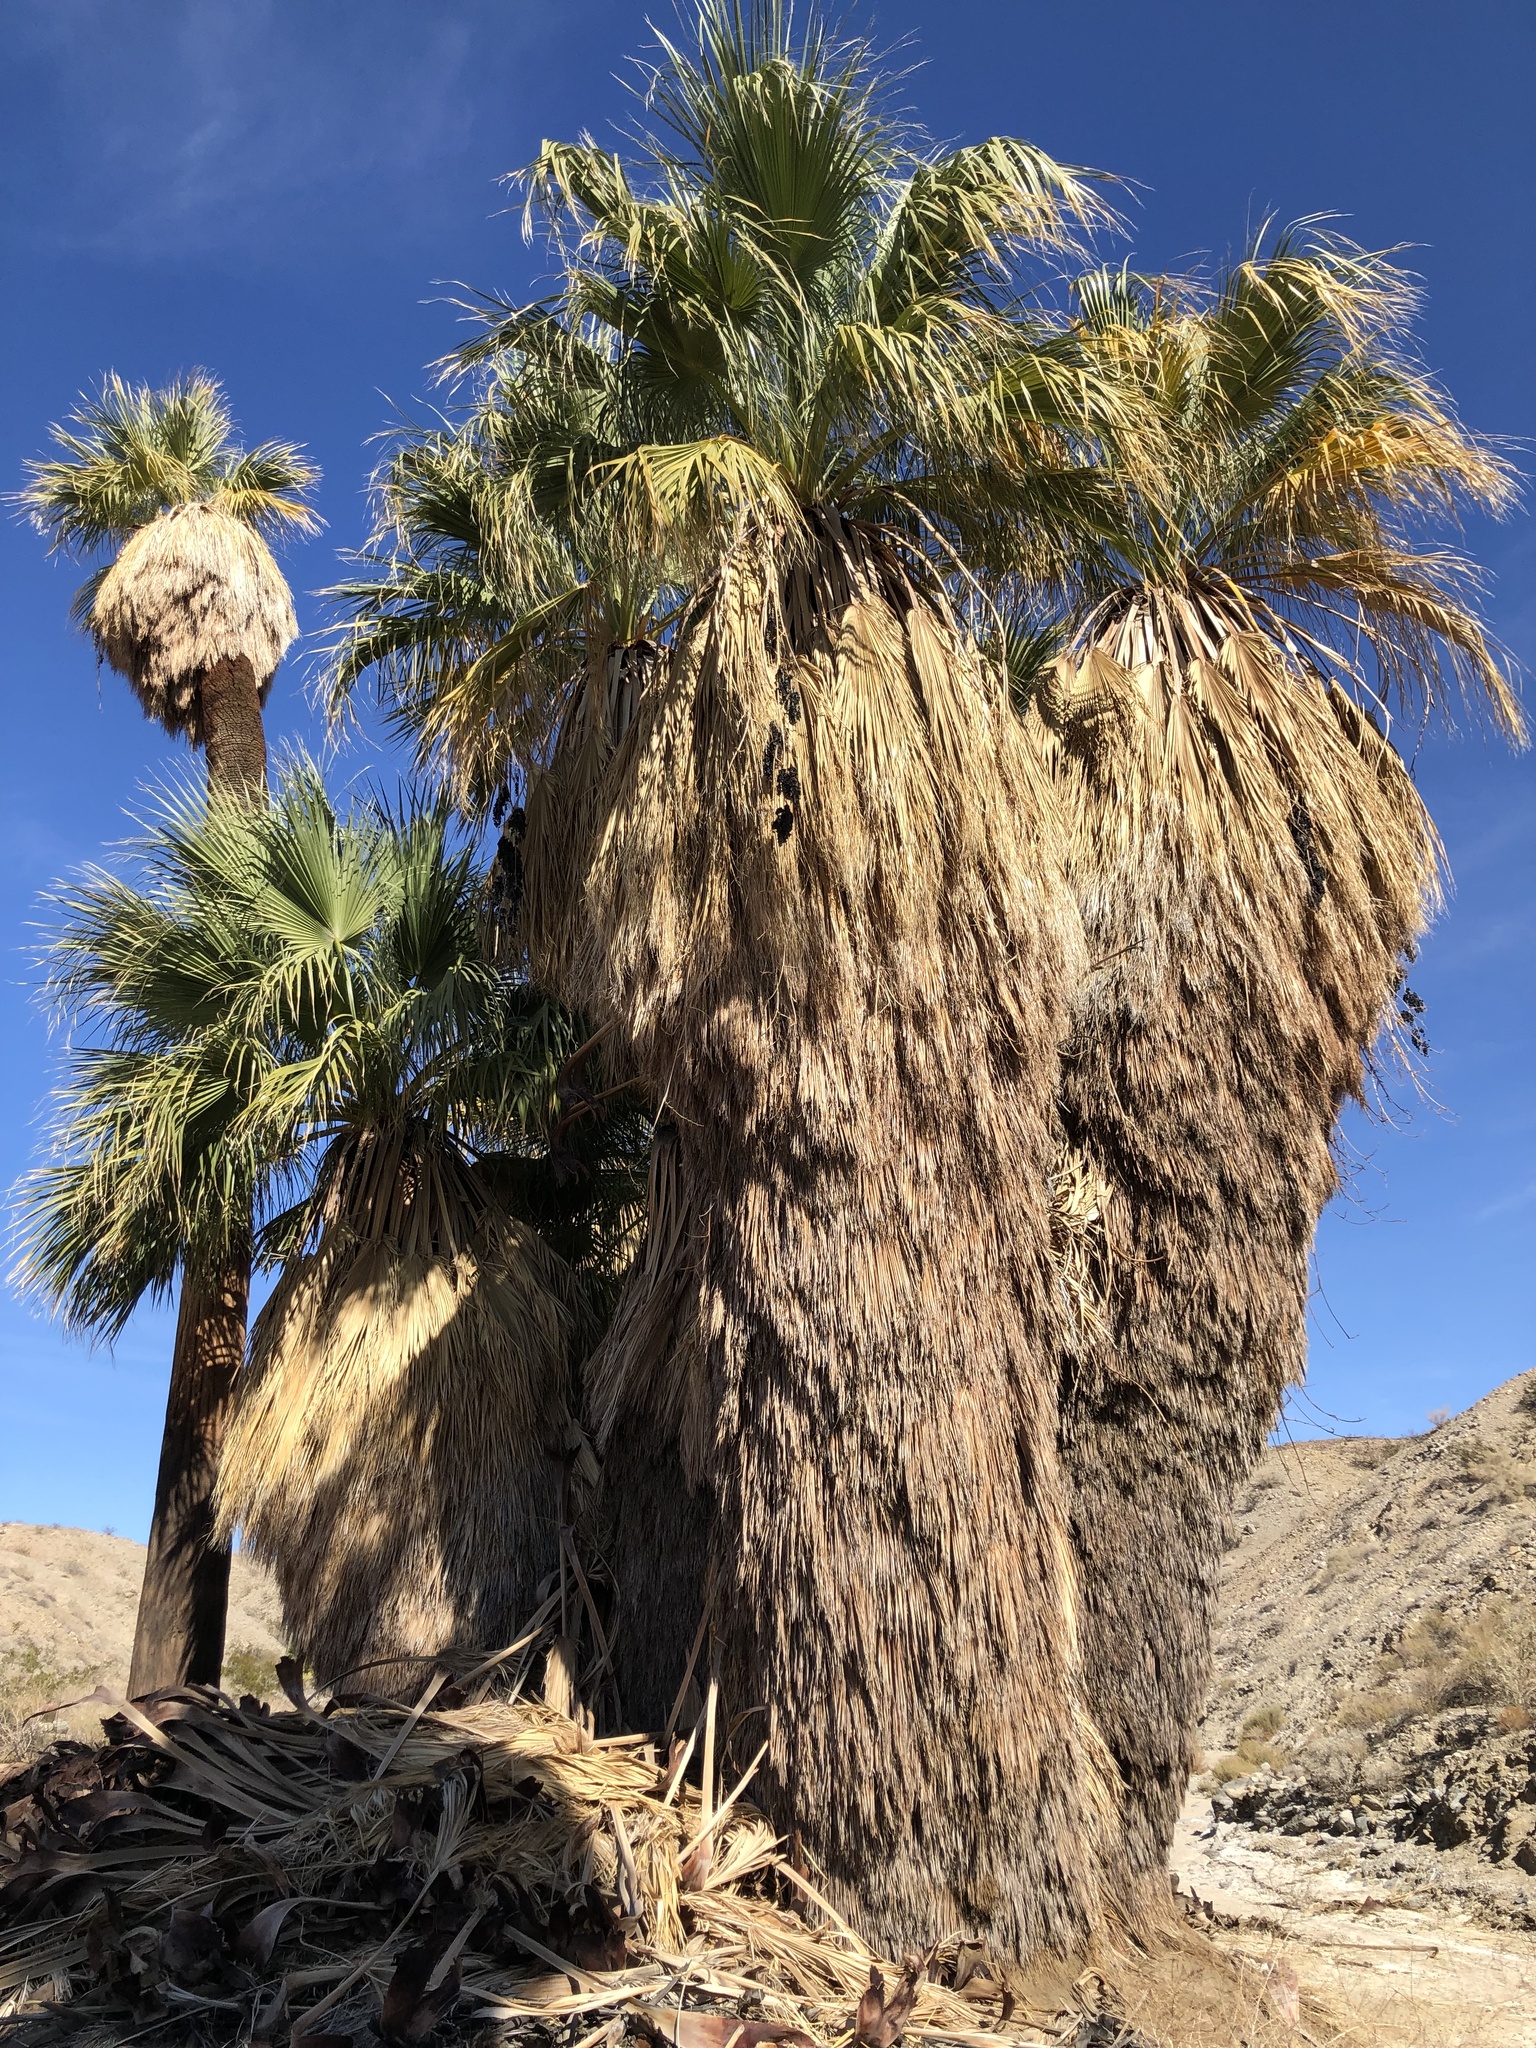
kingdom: Plantae
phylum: Tracheophyta
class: Liliopsida
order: Arecales
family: Arecaceae
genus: Washingtonia
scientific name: Washingtonia filifera
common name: California fan palm
